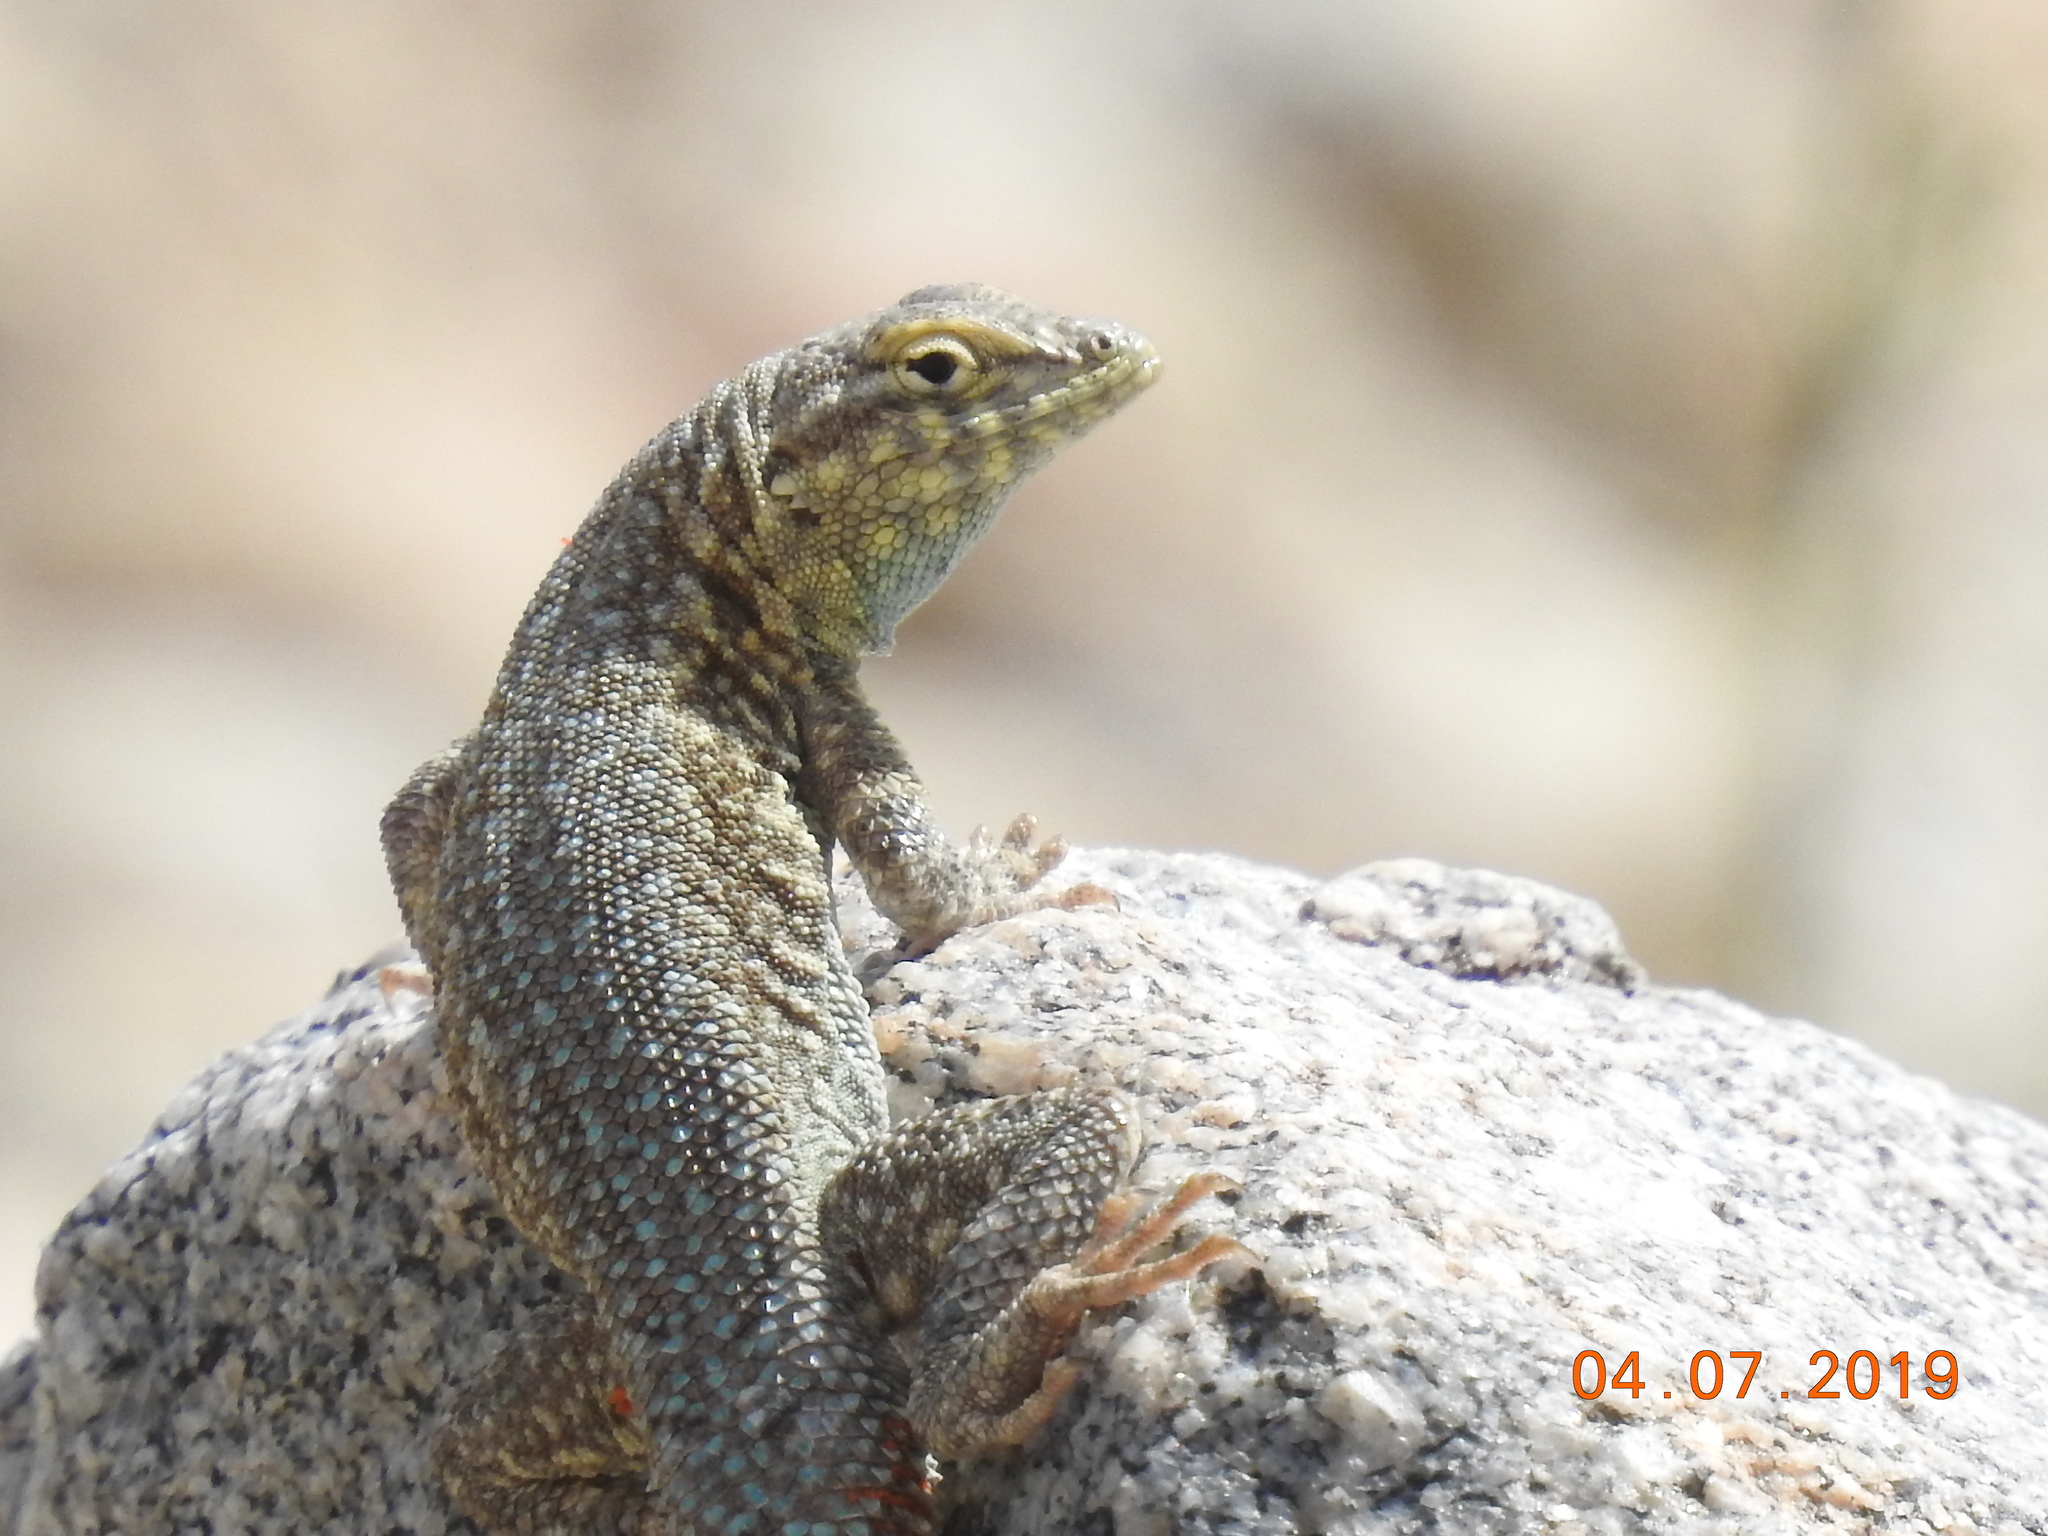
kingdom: Animalia
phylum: Chordata
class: Squamata
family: Phrynosomatidae
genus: Uta
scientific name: Uta stansburiana
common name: Side-blotched lizard
